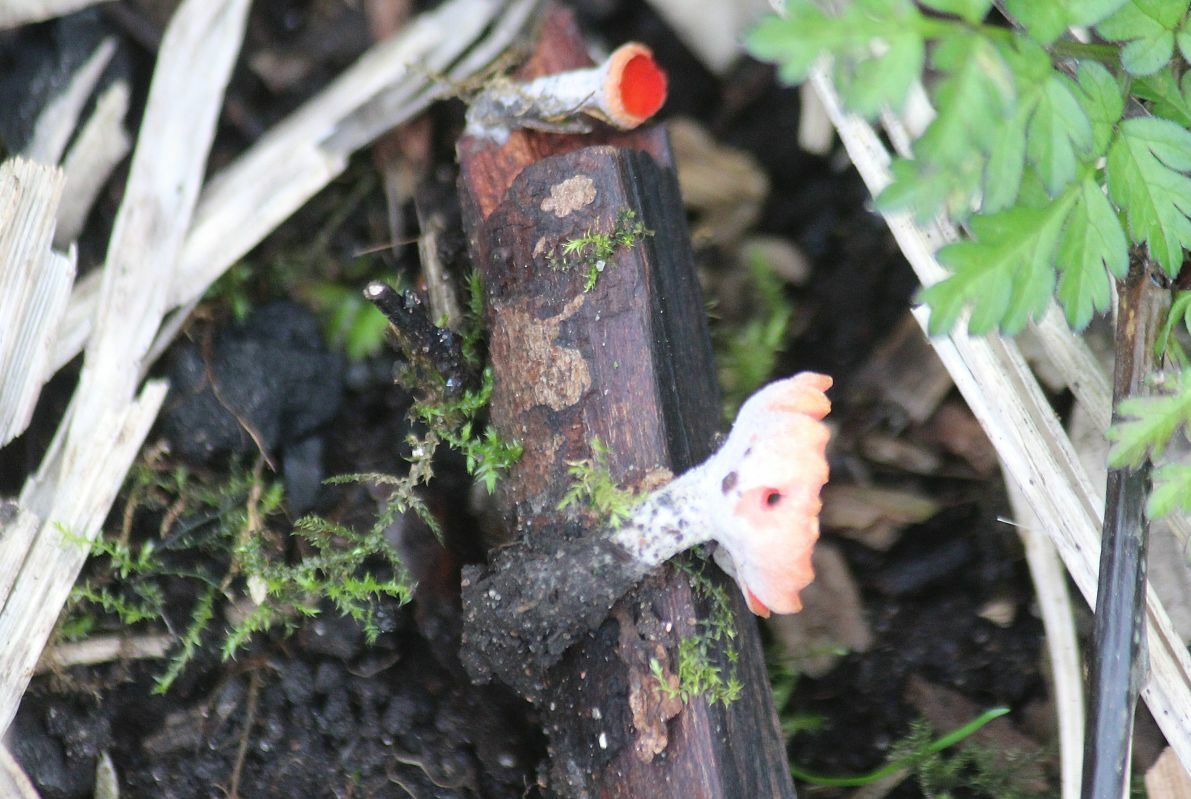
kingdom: Fungi
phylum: Ascomycota
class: Pezizomycetes
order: Pezizales
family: Sarcoscyphaceae
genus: Sarcoscypha
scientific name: Sarcoscypha
